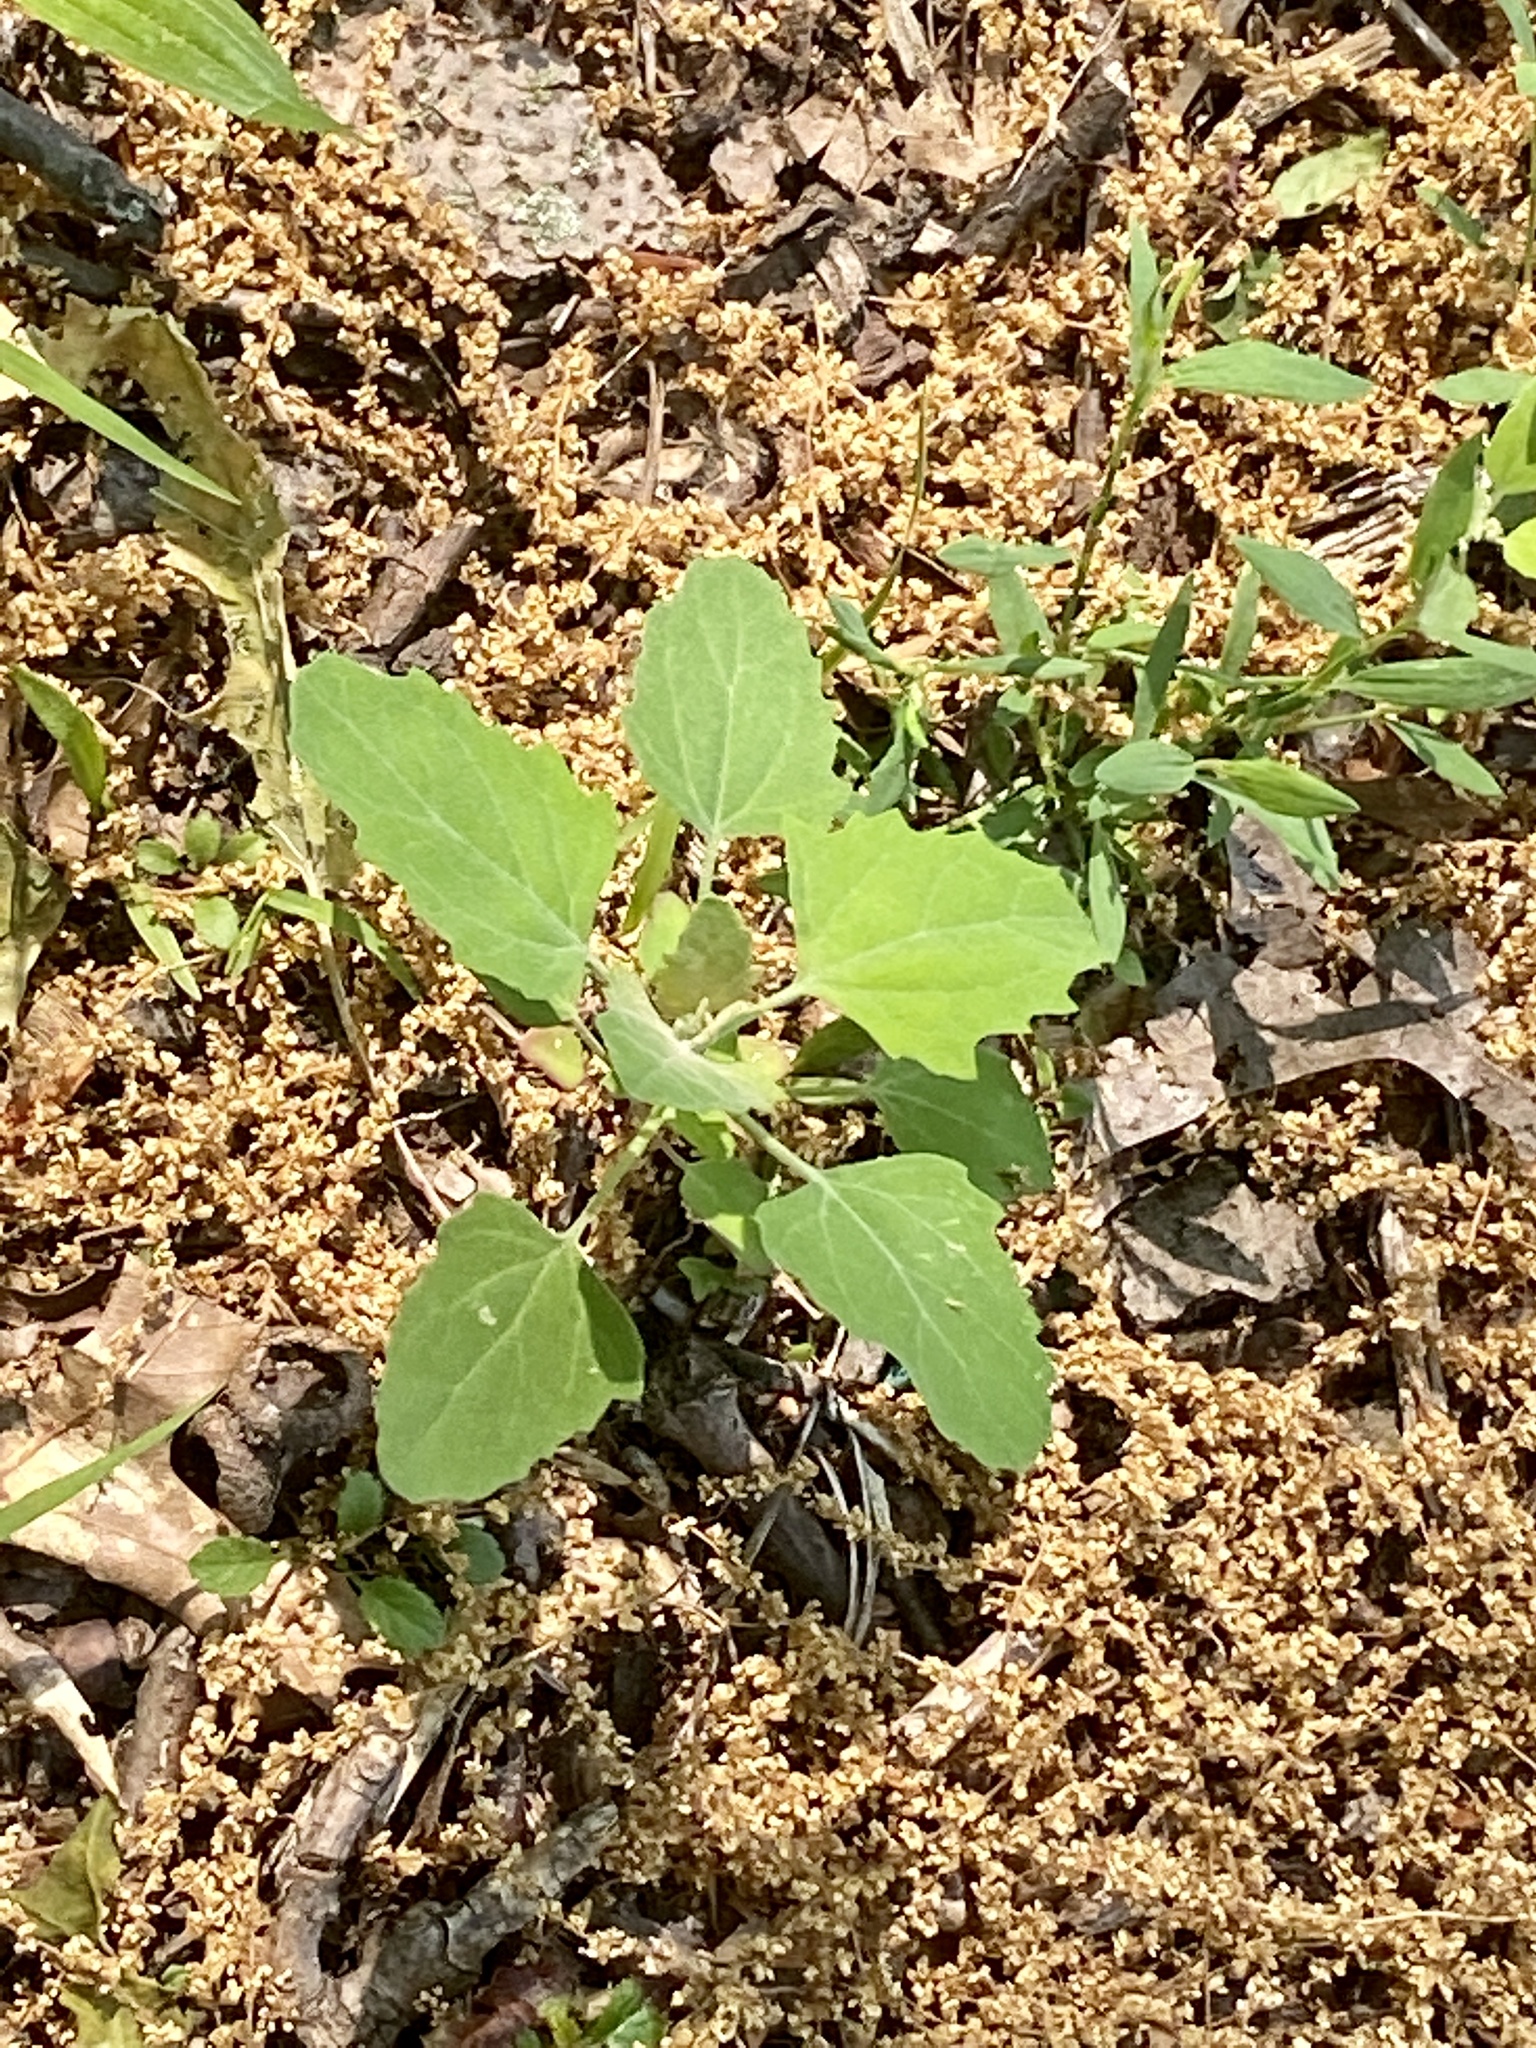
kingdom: Plantae
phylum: Tracheophyta
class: Magnoliopsida
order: Caryophyllales
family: Amaranthaceae
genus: Chenopodium
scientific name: Chenopodium album
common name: Fat-hen
